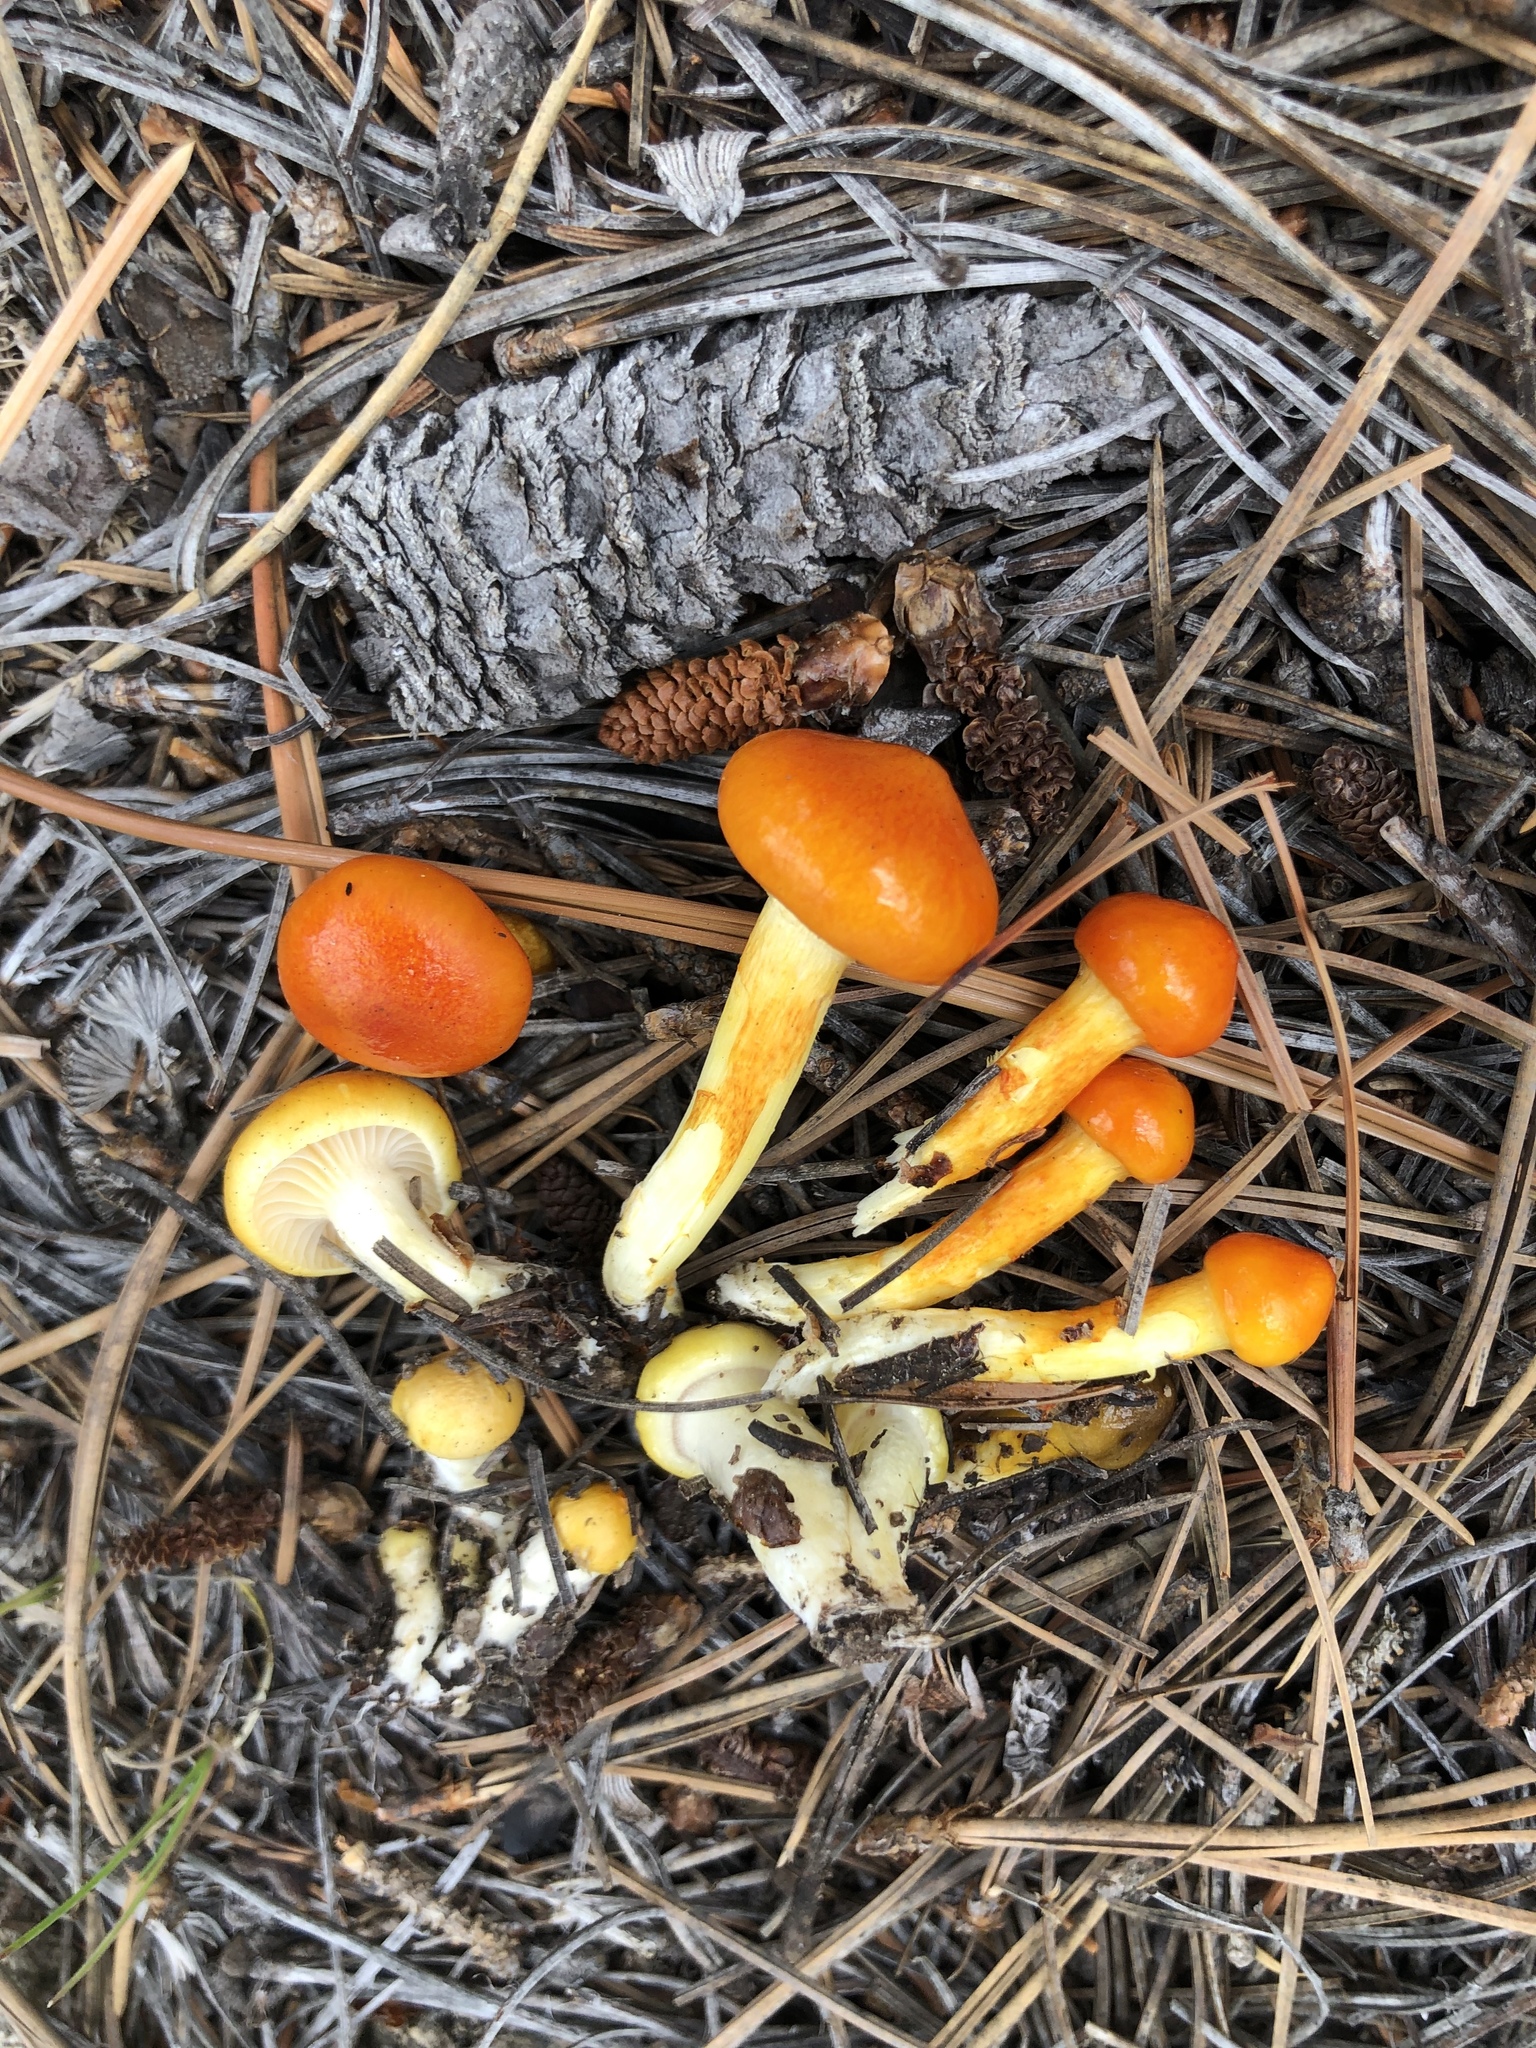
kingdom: Fungi
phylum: Basidiomycota
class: Agaricomycetes
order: Agaricales
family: Hygrophoraceae
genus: Hygrophorus
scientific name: Hygrophorus siccipes
